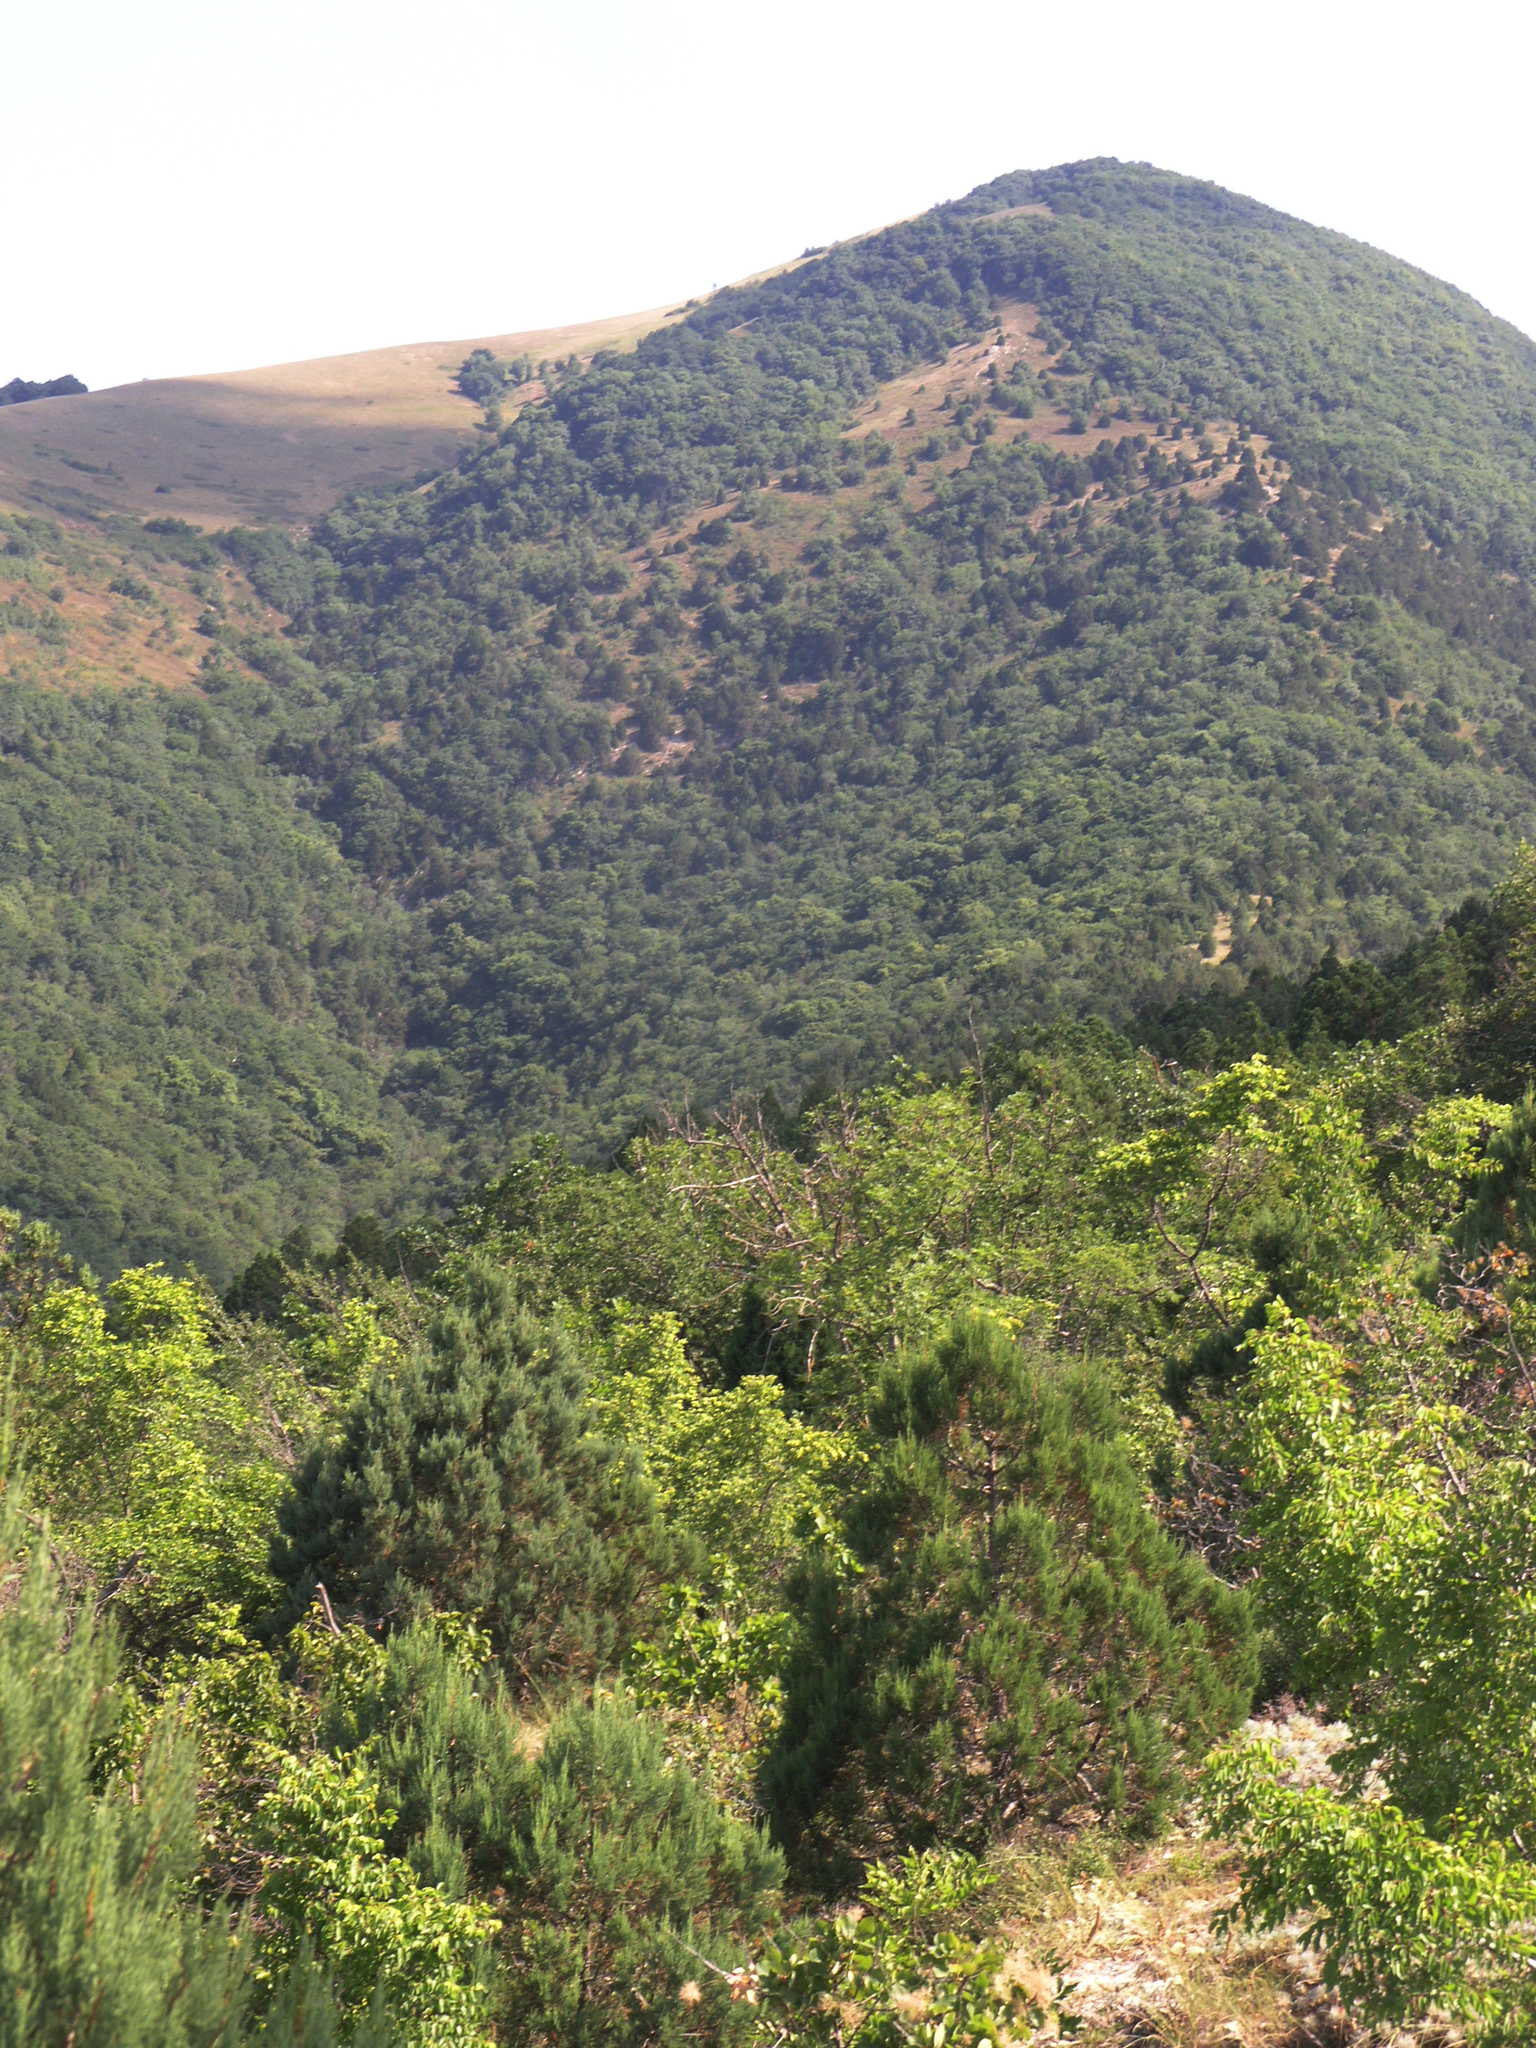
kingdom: Plantae
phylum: Tracheophyta
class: Magnoliopsida
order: Rosales
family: Rhamnaceae
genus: Paliurus
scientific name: Paliurus spina-christi
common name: Jeruselem thorn
